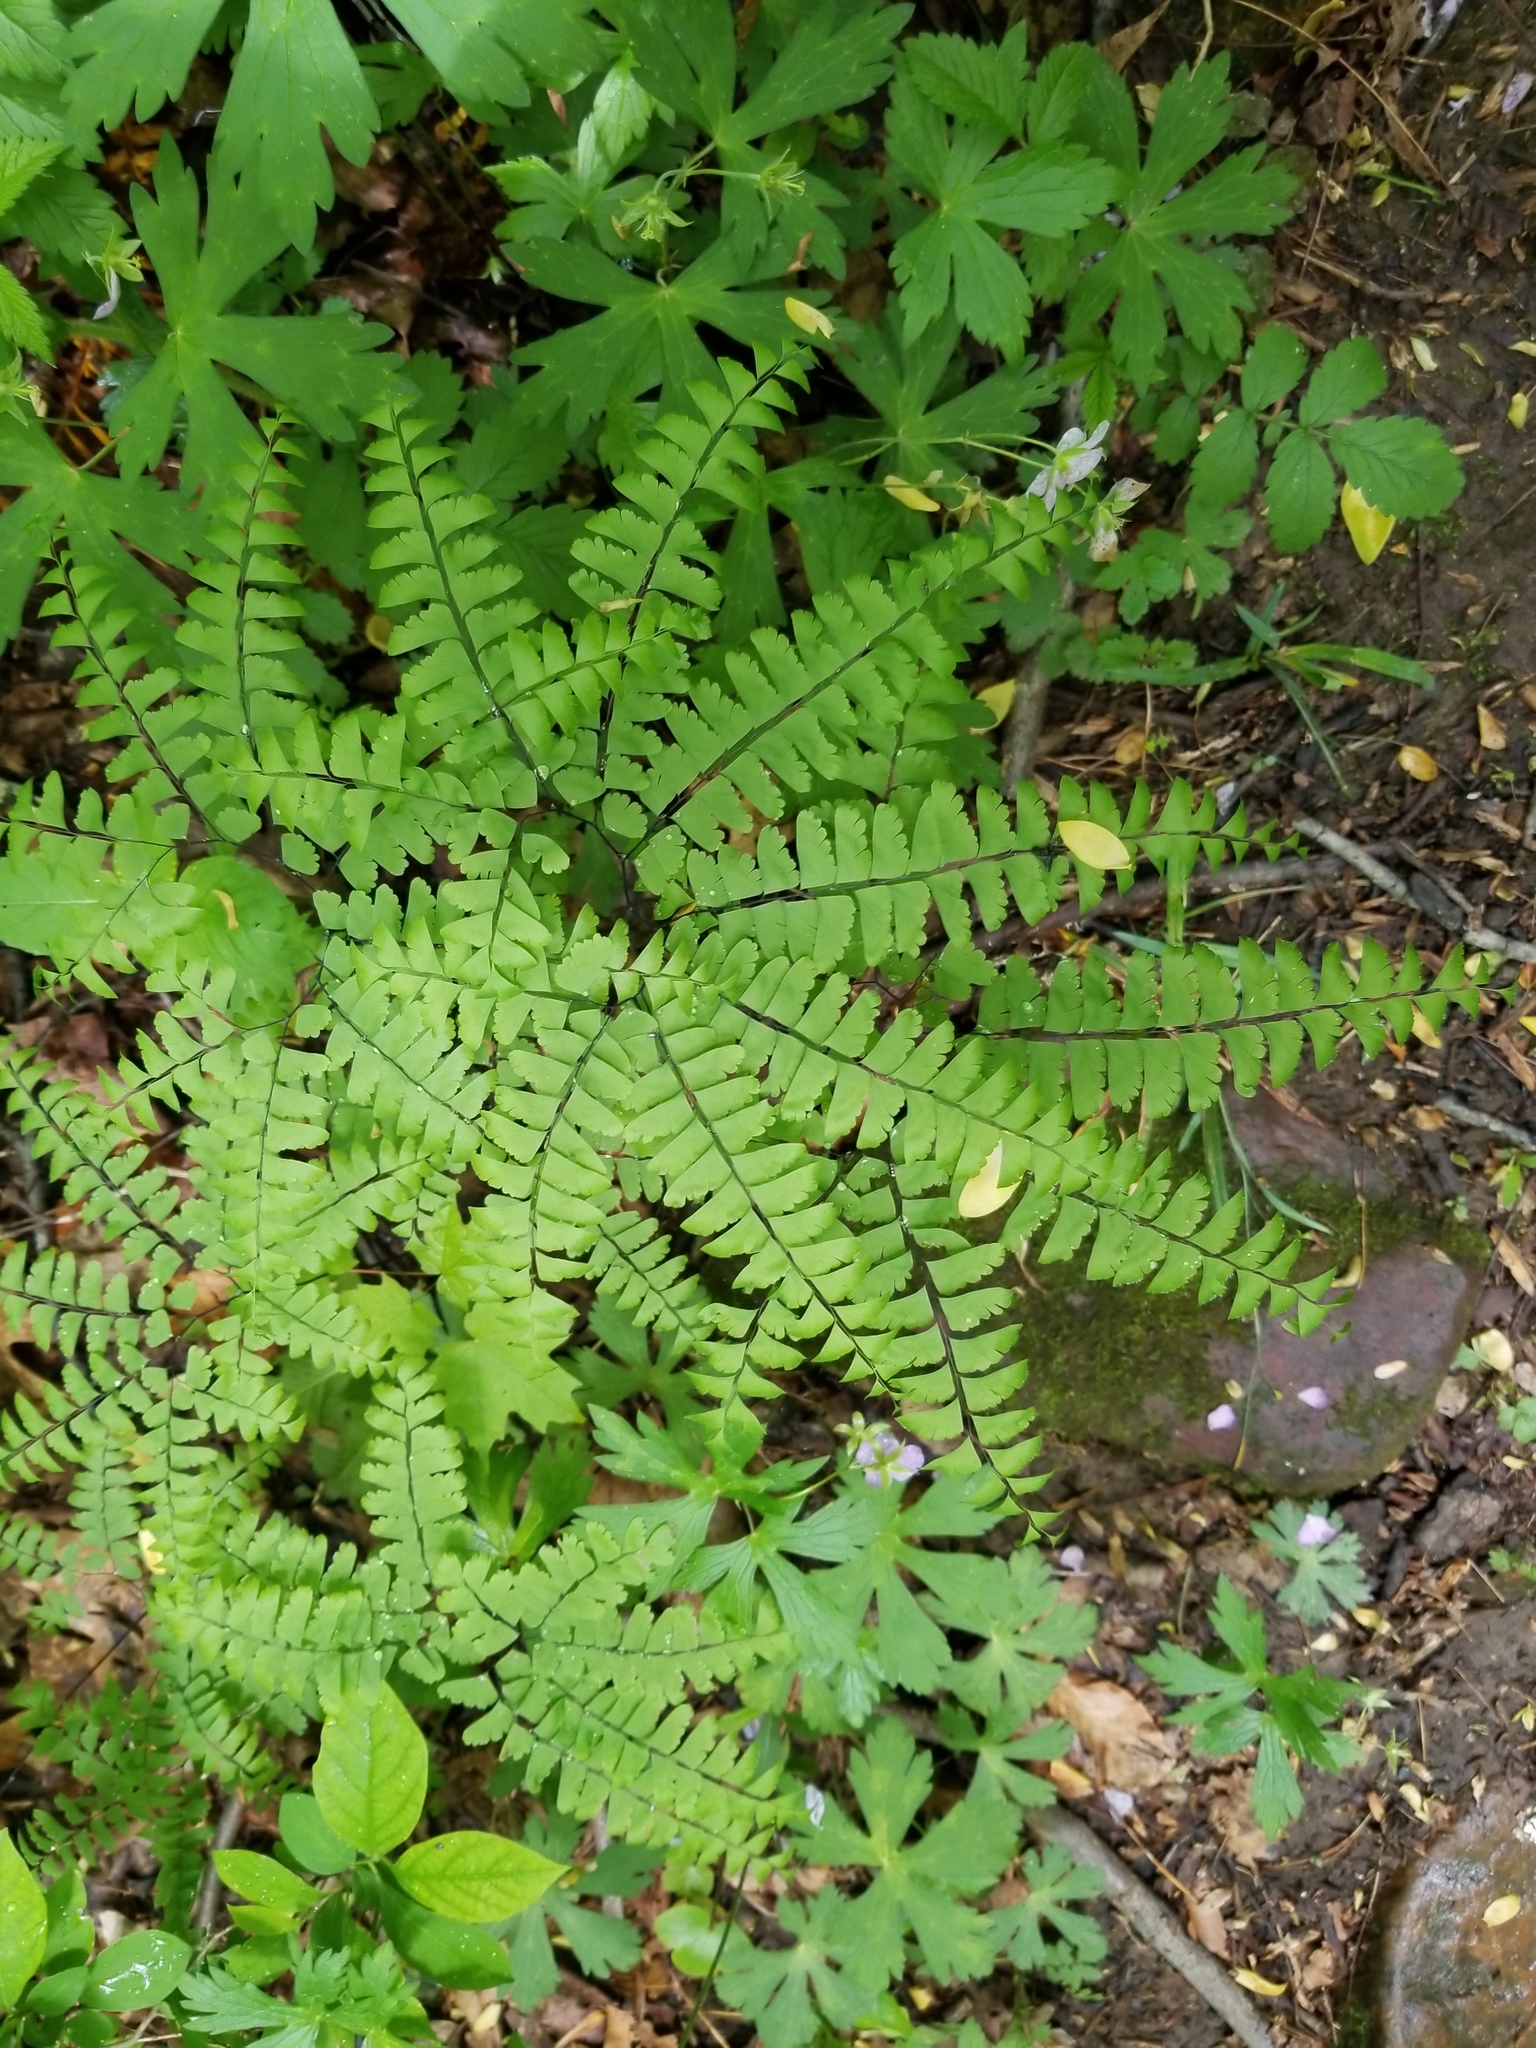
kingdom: Plantae
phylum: Tracheophyta
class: Polypodiopsida
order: Polypodiales
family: Pteridaceae
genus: Adiantum
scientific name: Adiantum pedatum
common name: Five-finger fern
